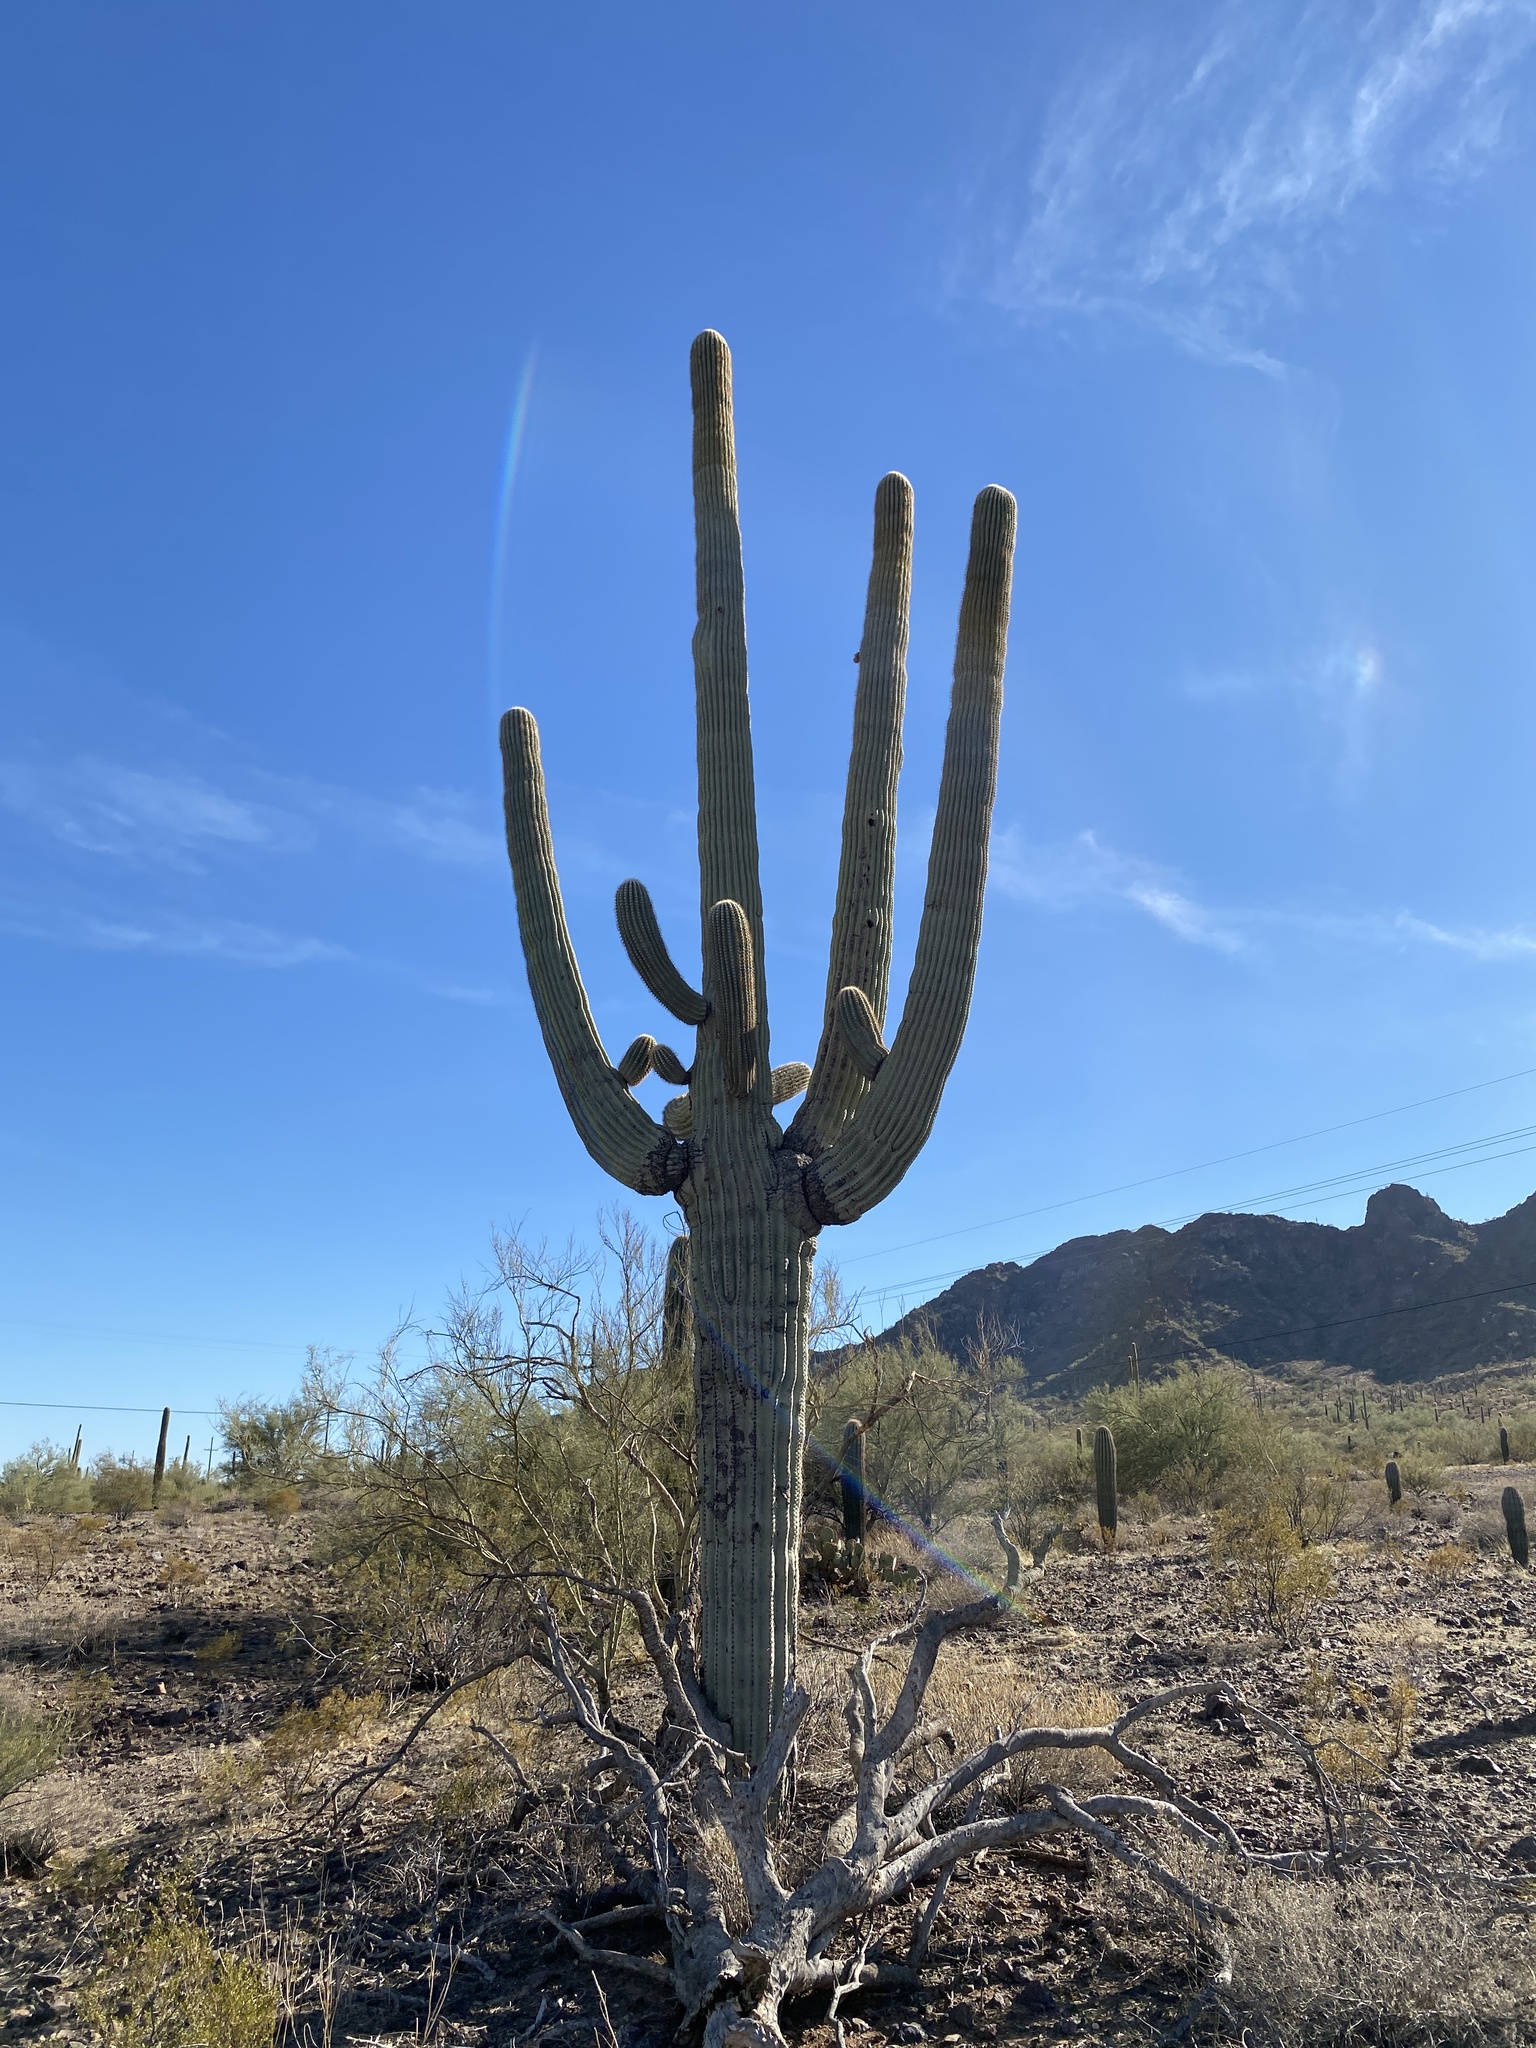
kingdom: Plantae
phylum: Tracheophyta
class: Magnoliopsida
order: Caryophyllales
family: Cactaceae
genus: Carnegiea
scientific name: Carnegiea gigantea
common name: Saguaro
